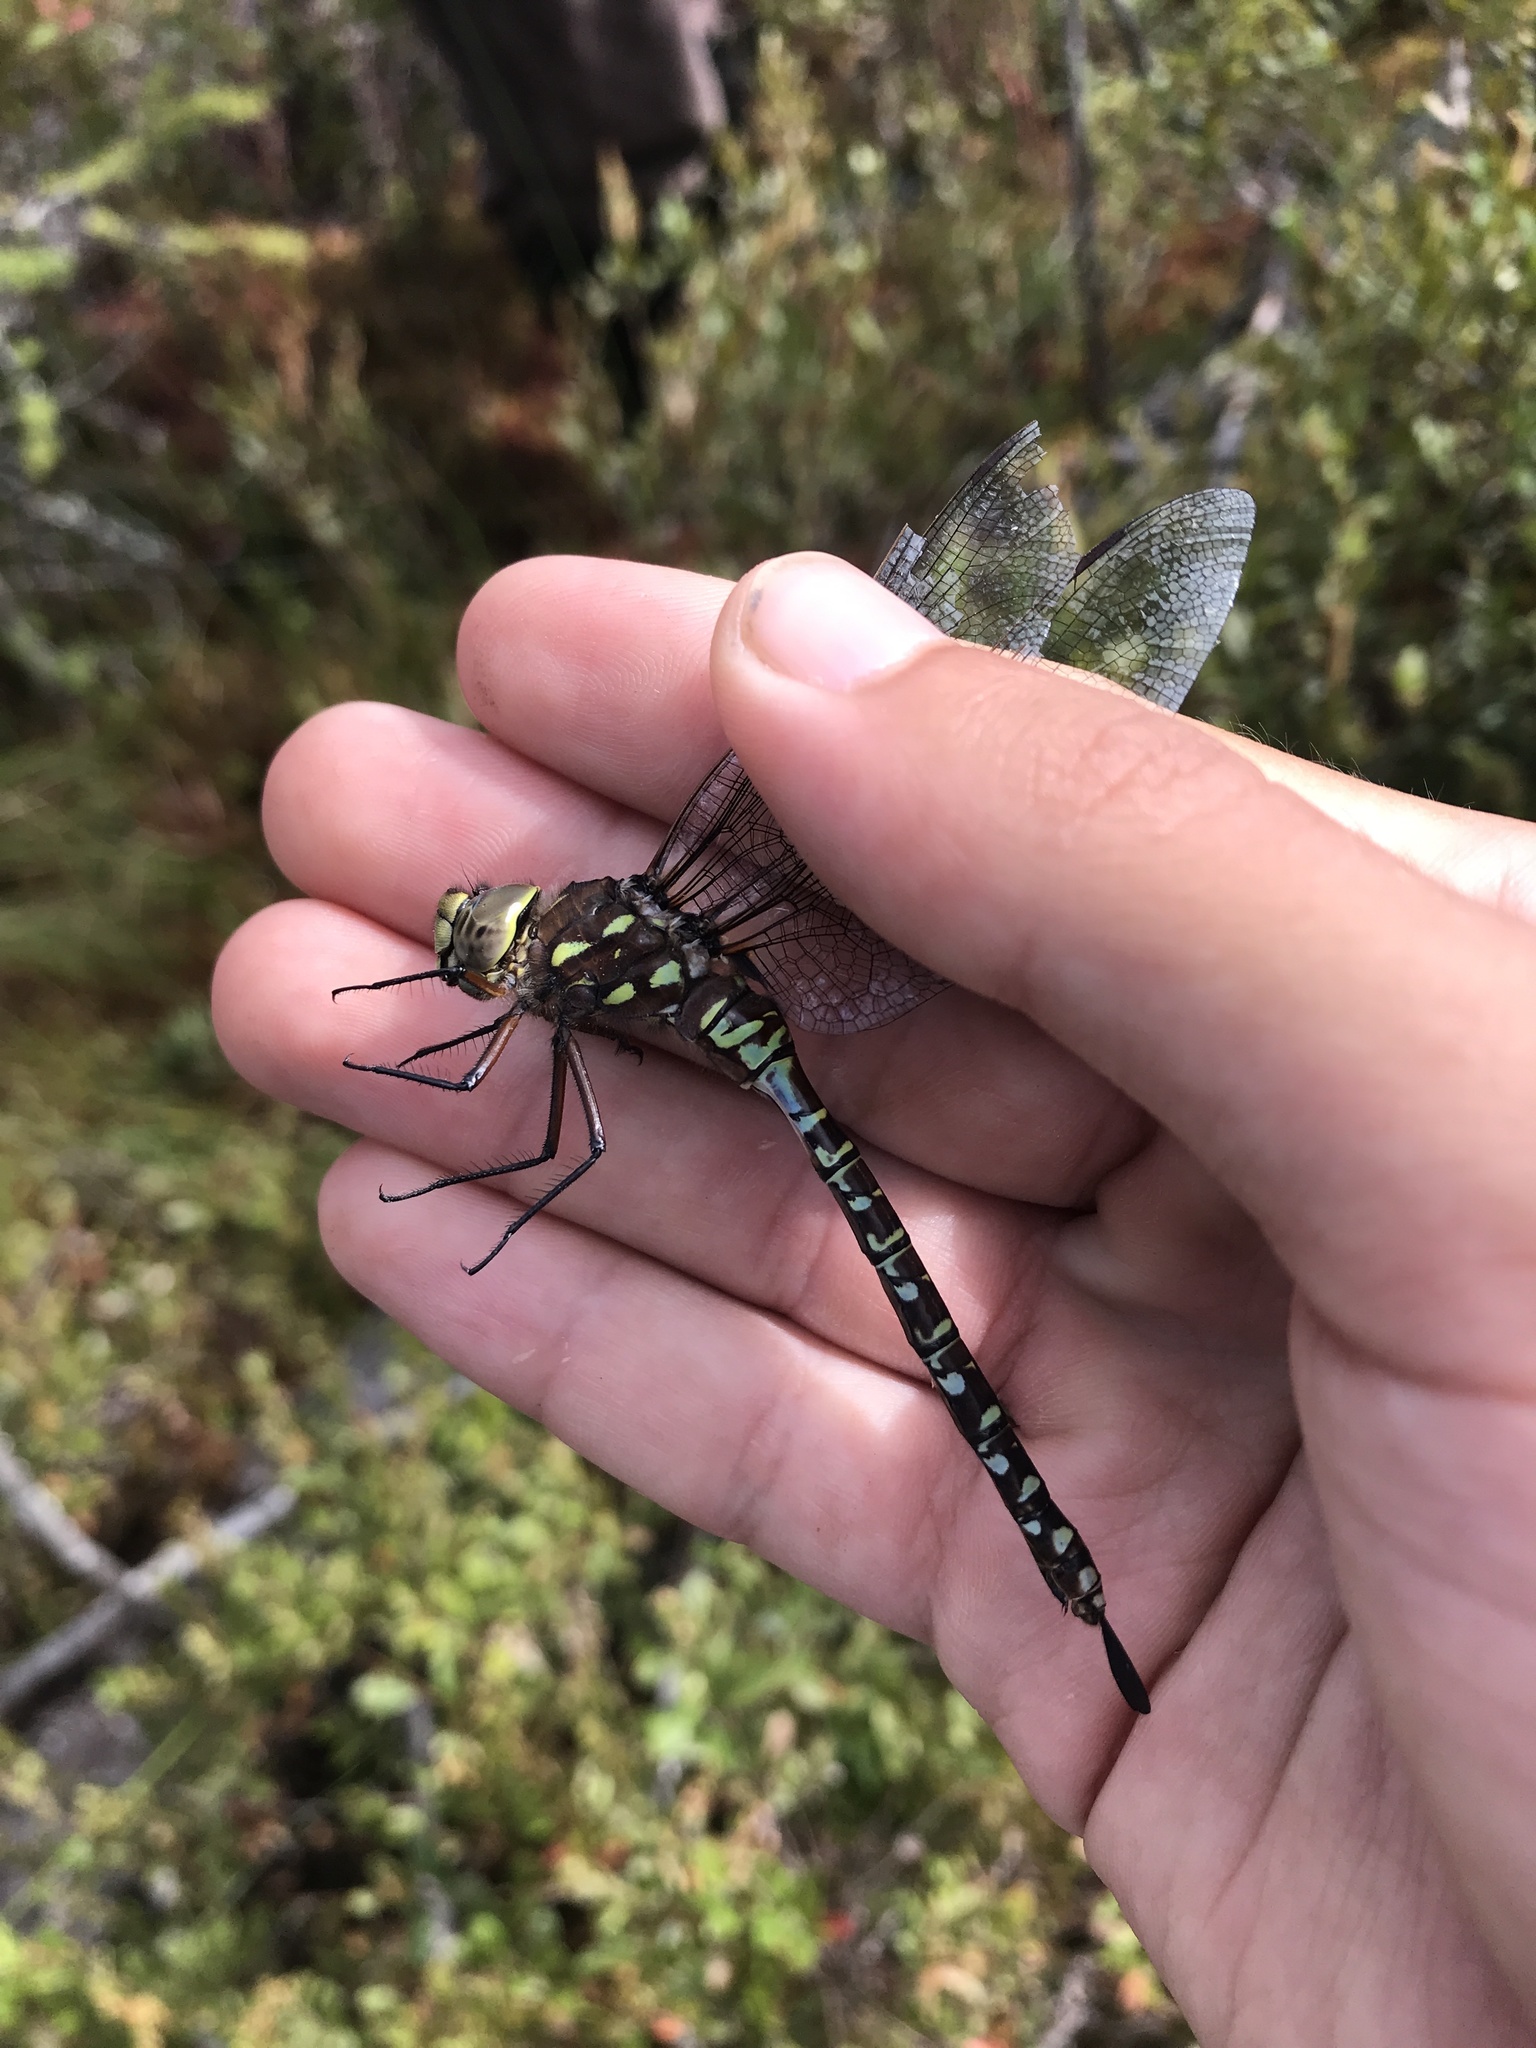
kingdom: Animalia
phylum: Arthropoda
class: Insecta
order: Odonata
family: Aeshnidae
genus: Aeshna
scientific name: Aeshna interrupta
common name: Variable darner
